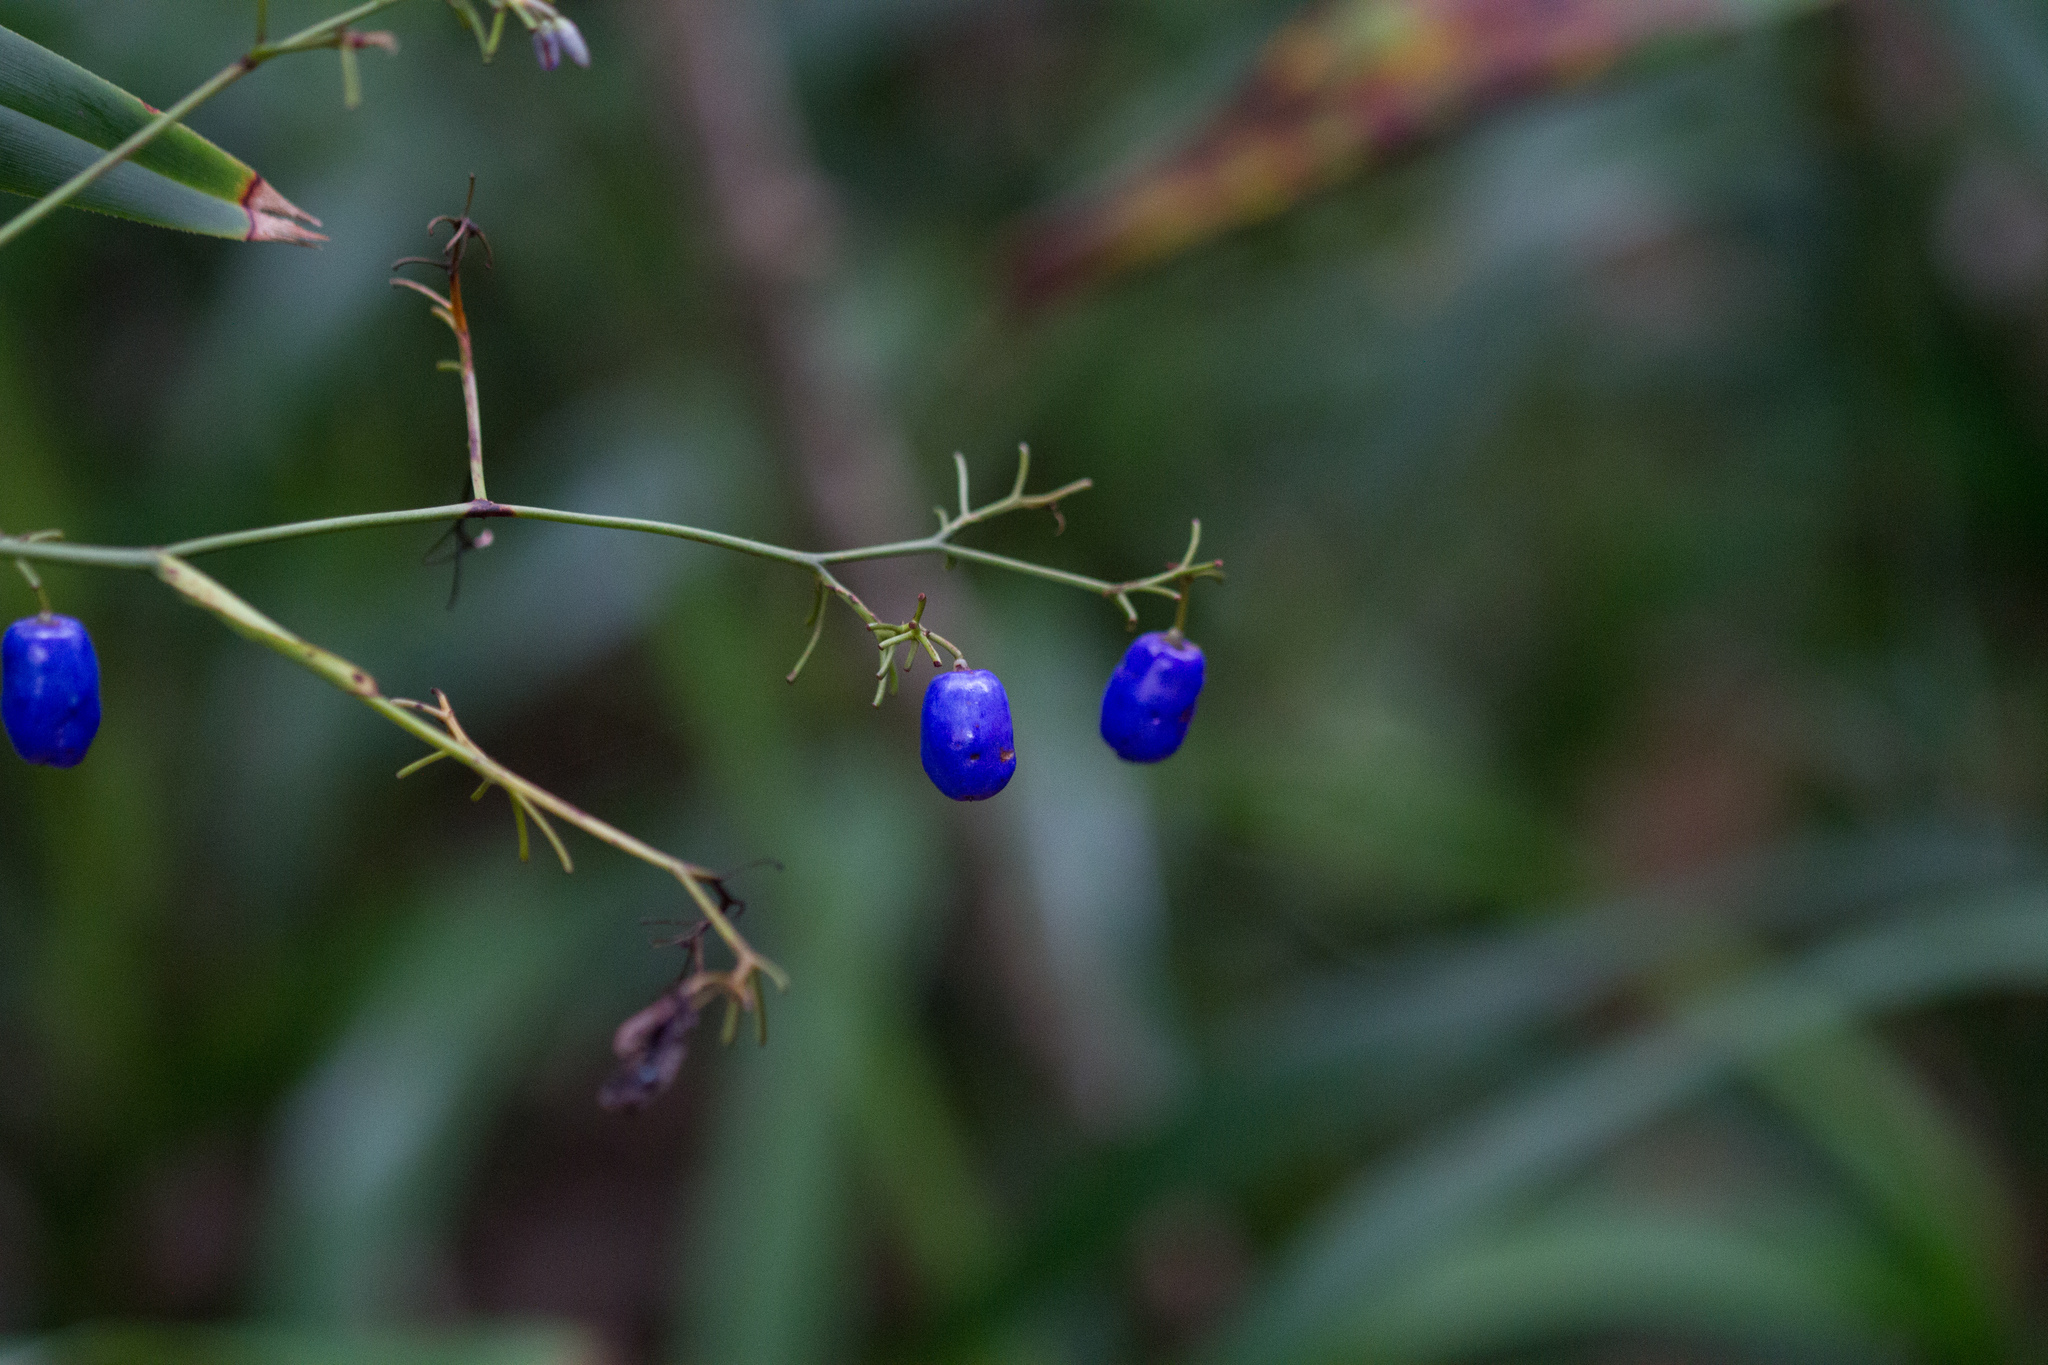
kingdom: Plantae
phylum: Tracheophyta
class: Liliopsida
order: Asparagales
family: Asphodelaceae
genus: Dianella
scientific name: Dianella ensifolia
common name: New zealand lilyplant
